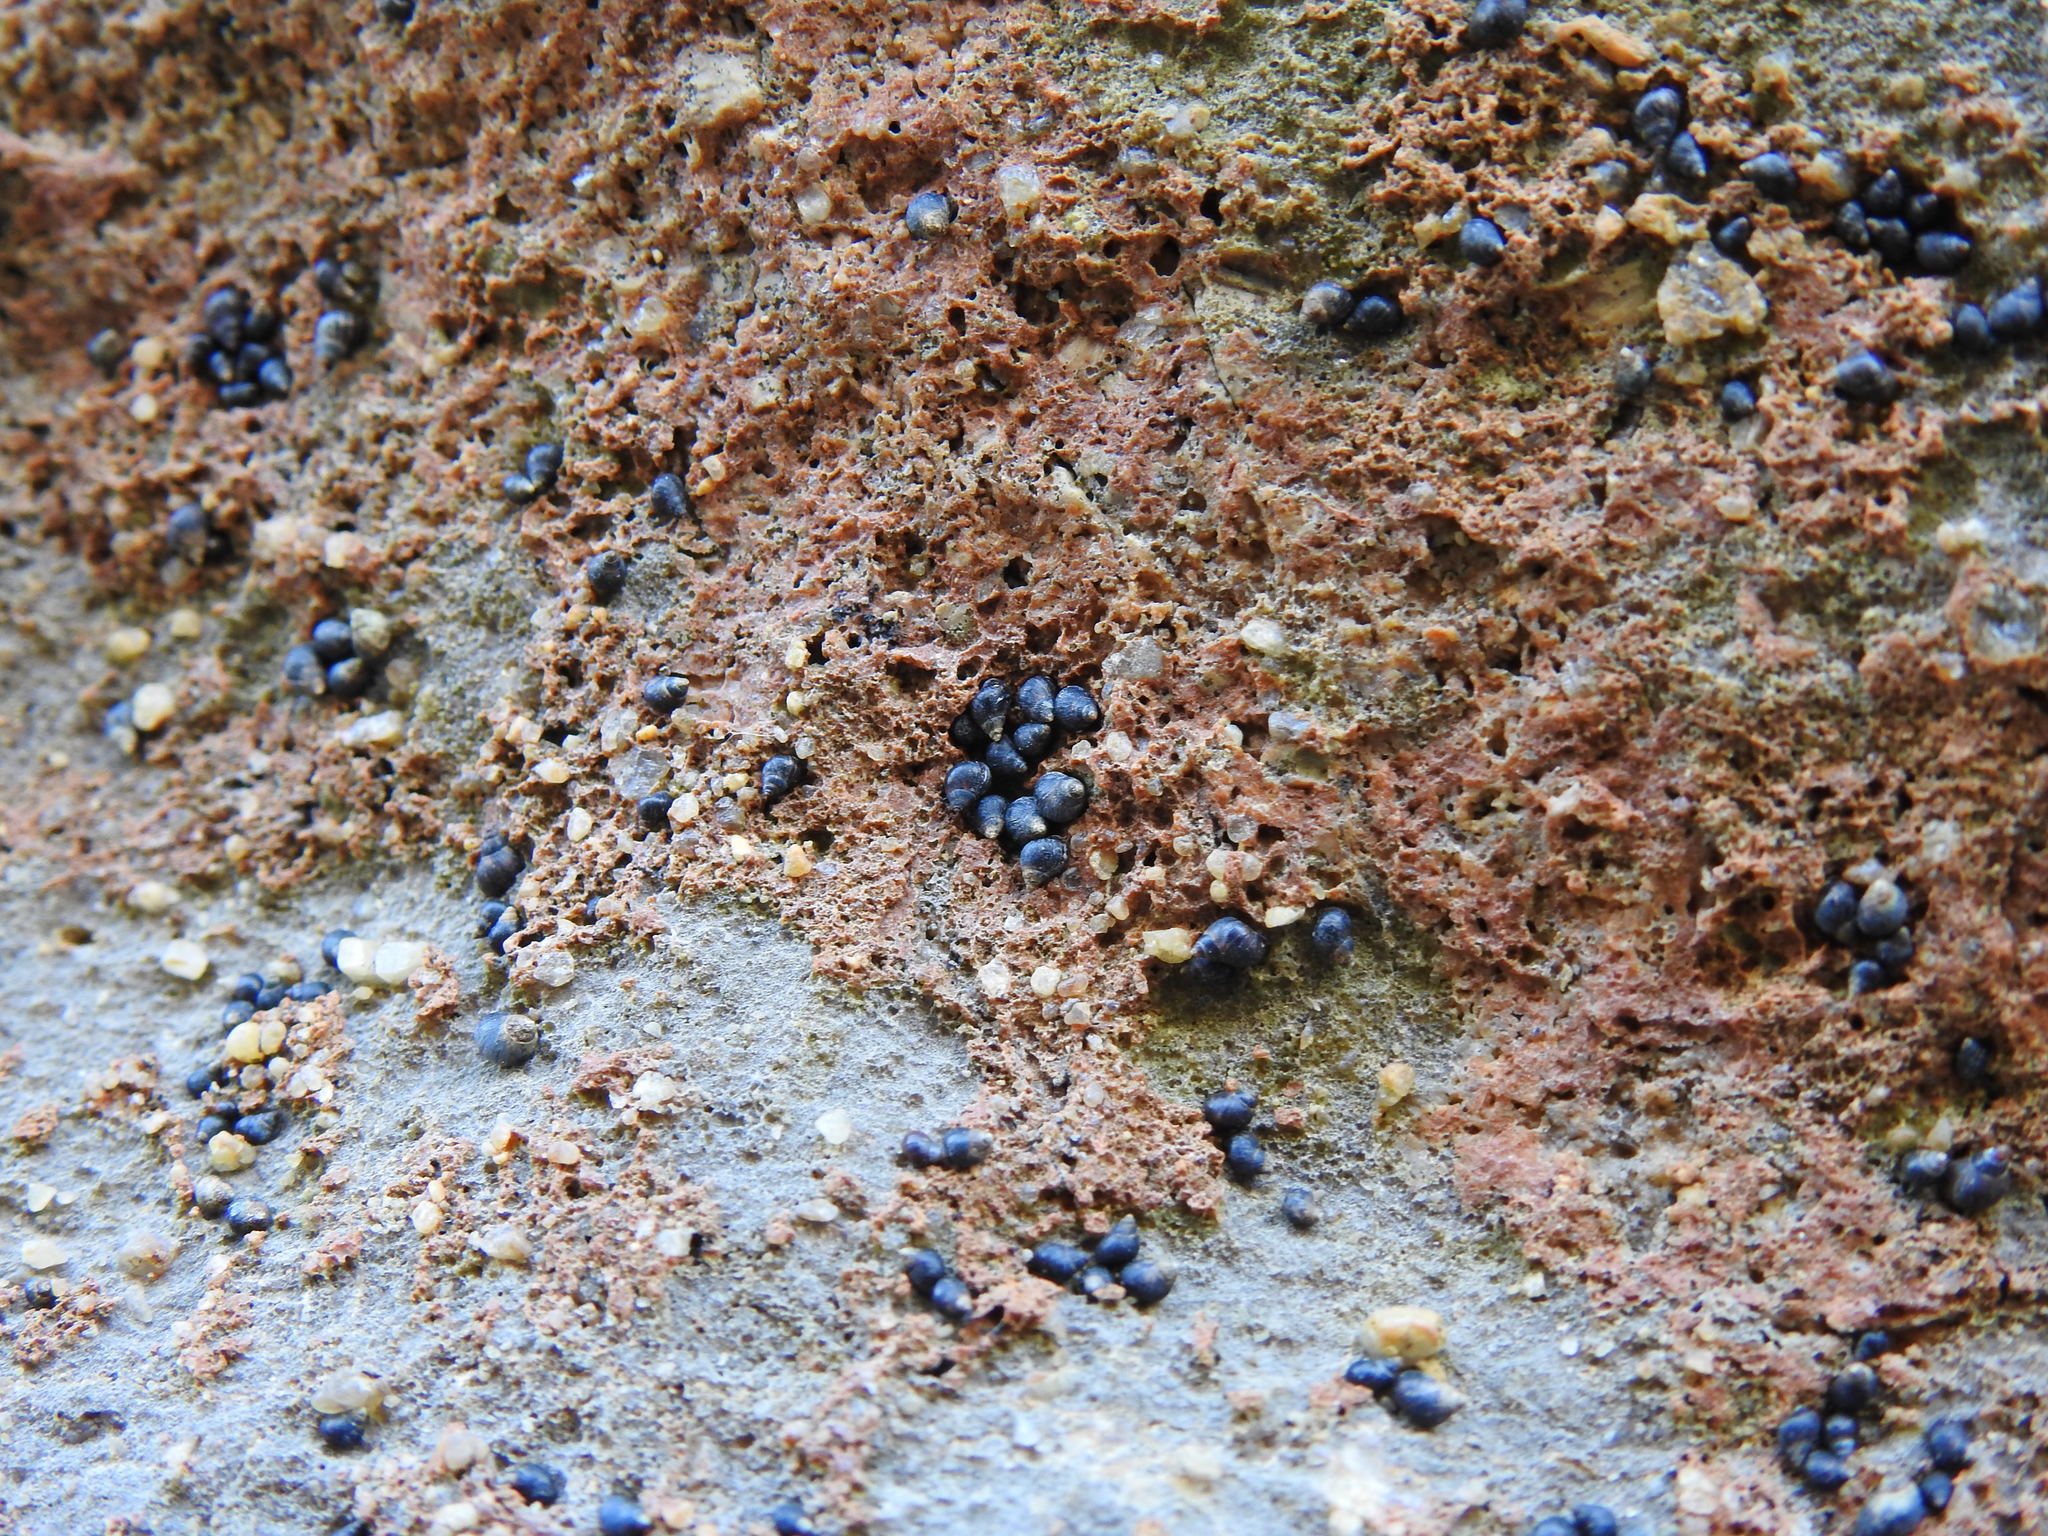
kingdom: Animalia
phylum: Mollusca
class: Gastropoda
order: Littorinimorpha
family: Littorinidae
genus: Melarhaphe
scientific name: Melarhaphe neritoides
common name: Small periwinkle
